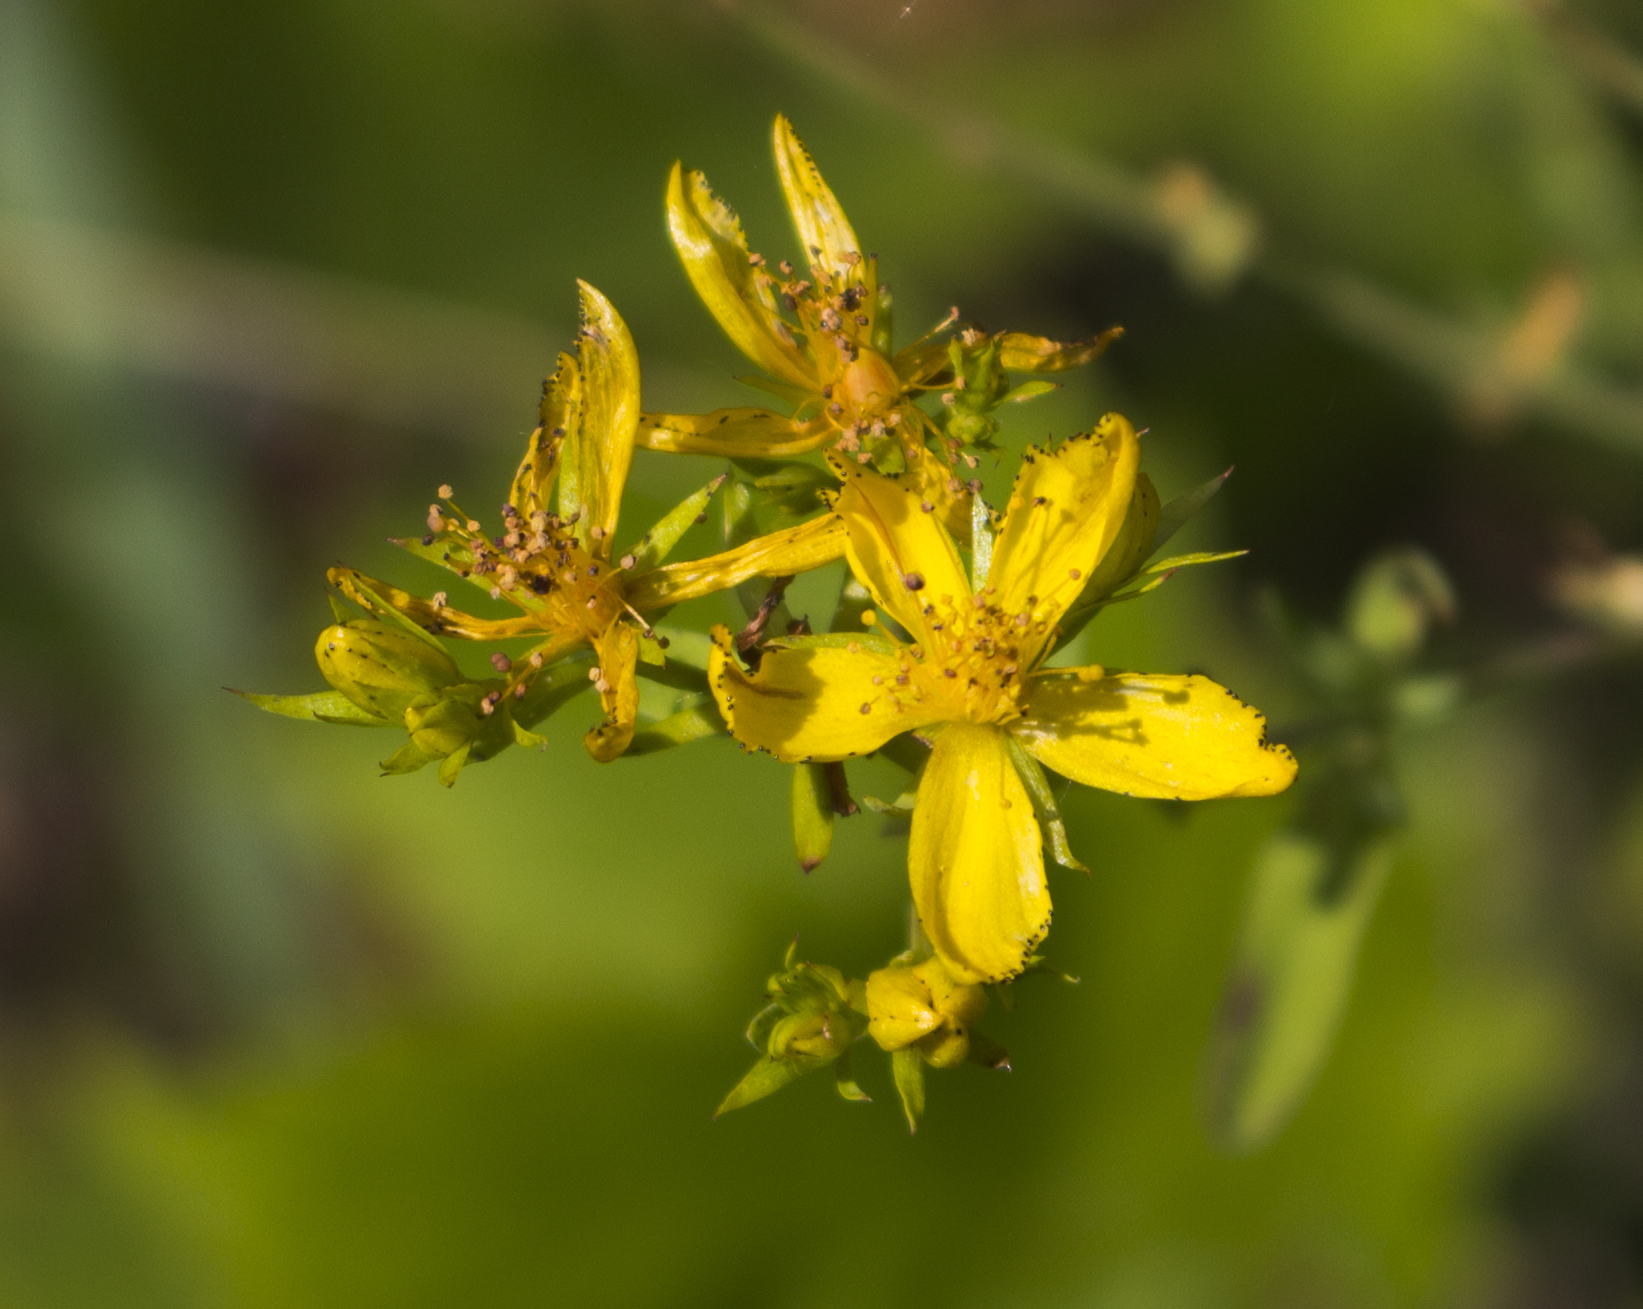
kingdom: Plantae
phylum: Tracheophyta
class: Magnoliopsida
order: Malpighiales
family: Hypericaceae
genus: Hypericum
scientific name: Hypericum perforatum
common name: Common st. johnswort
